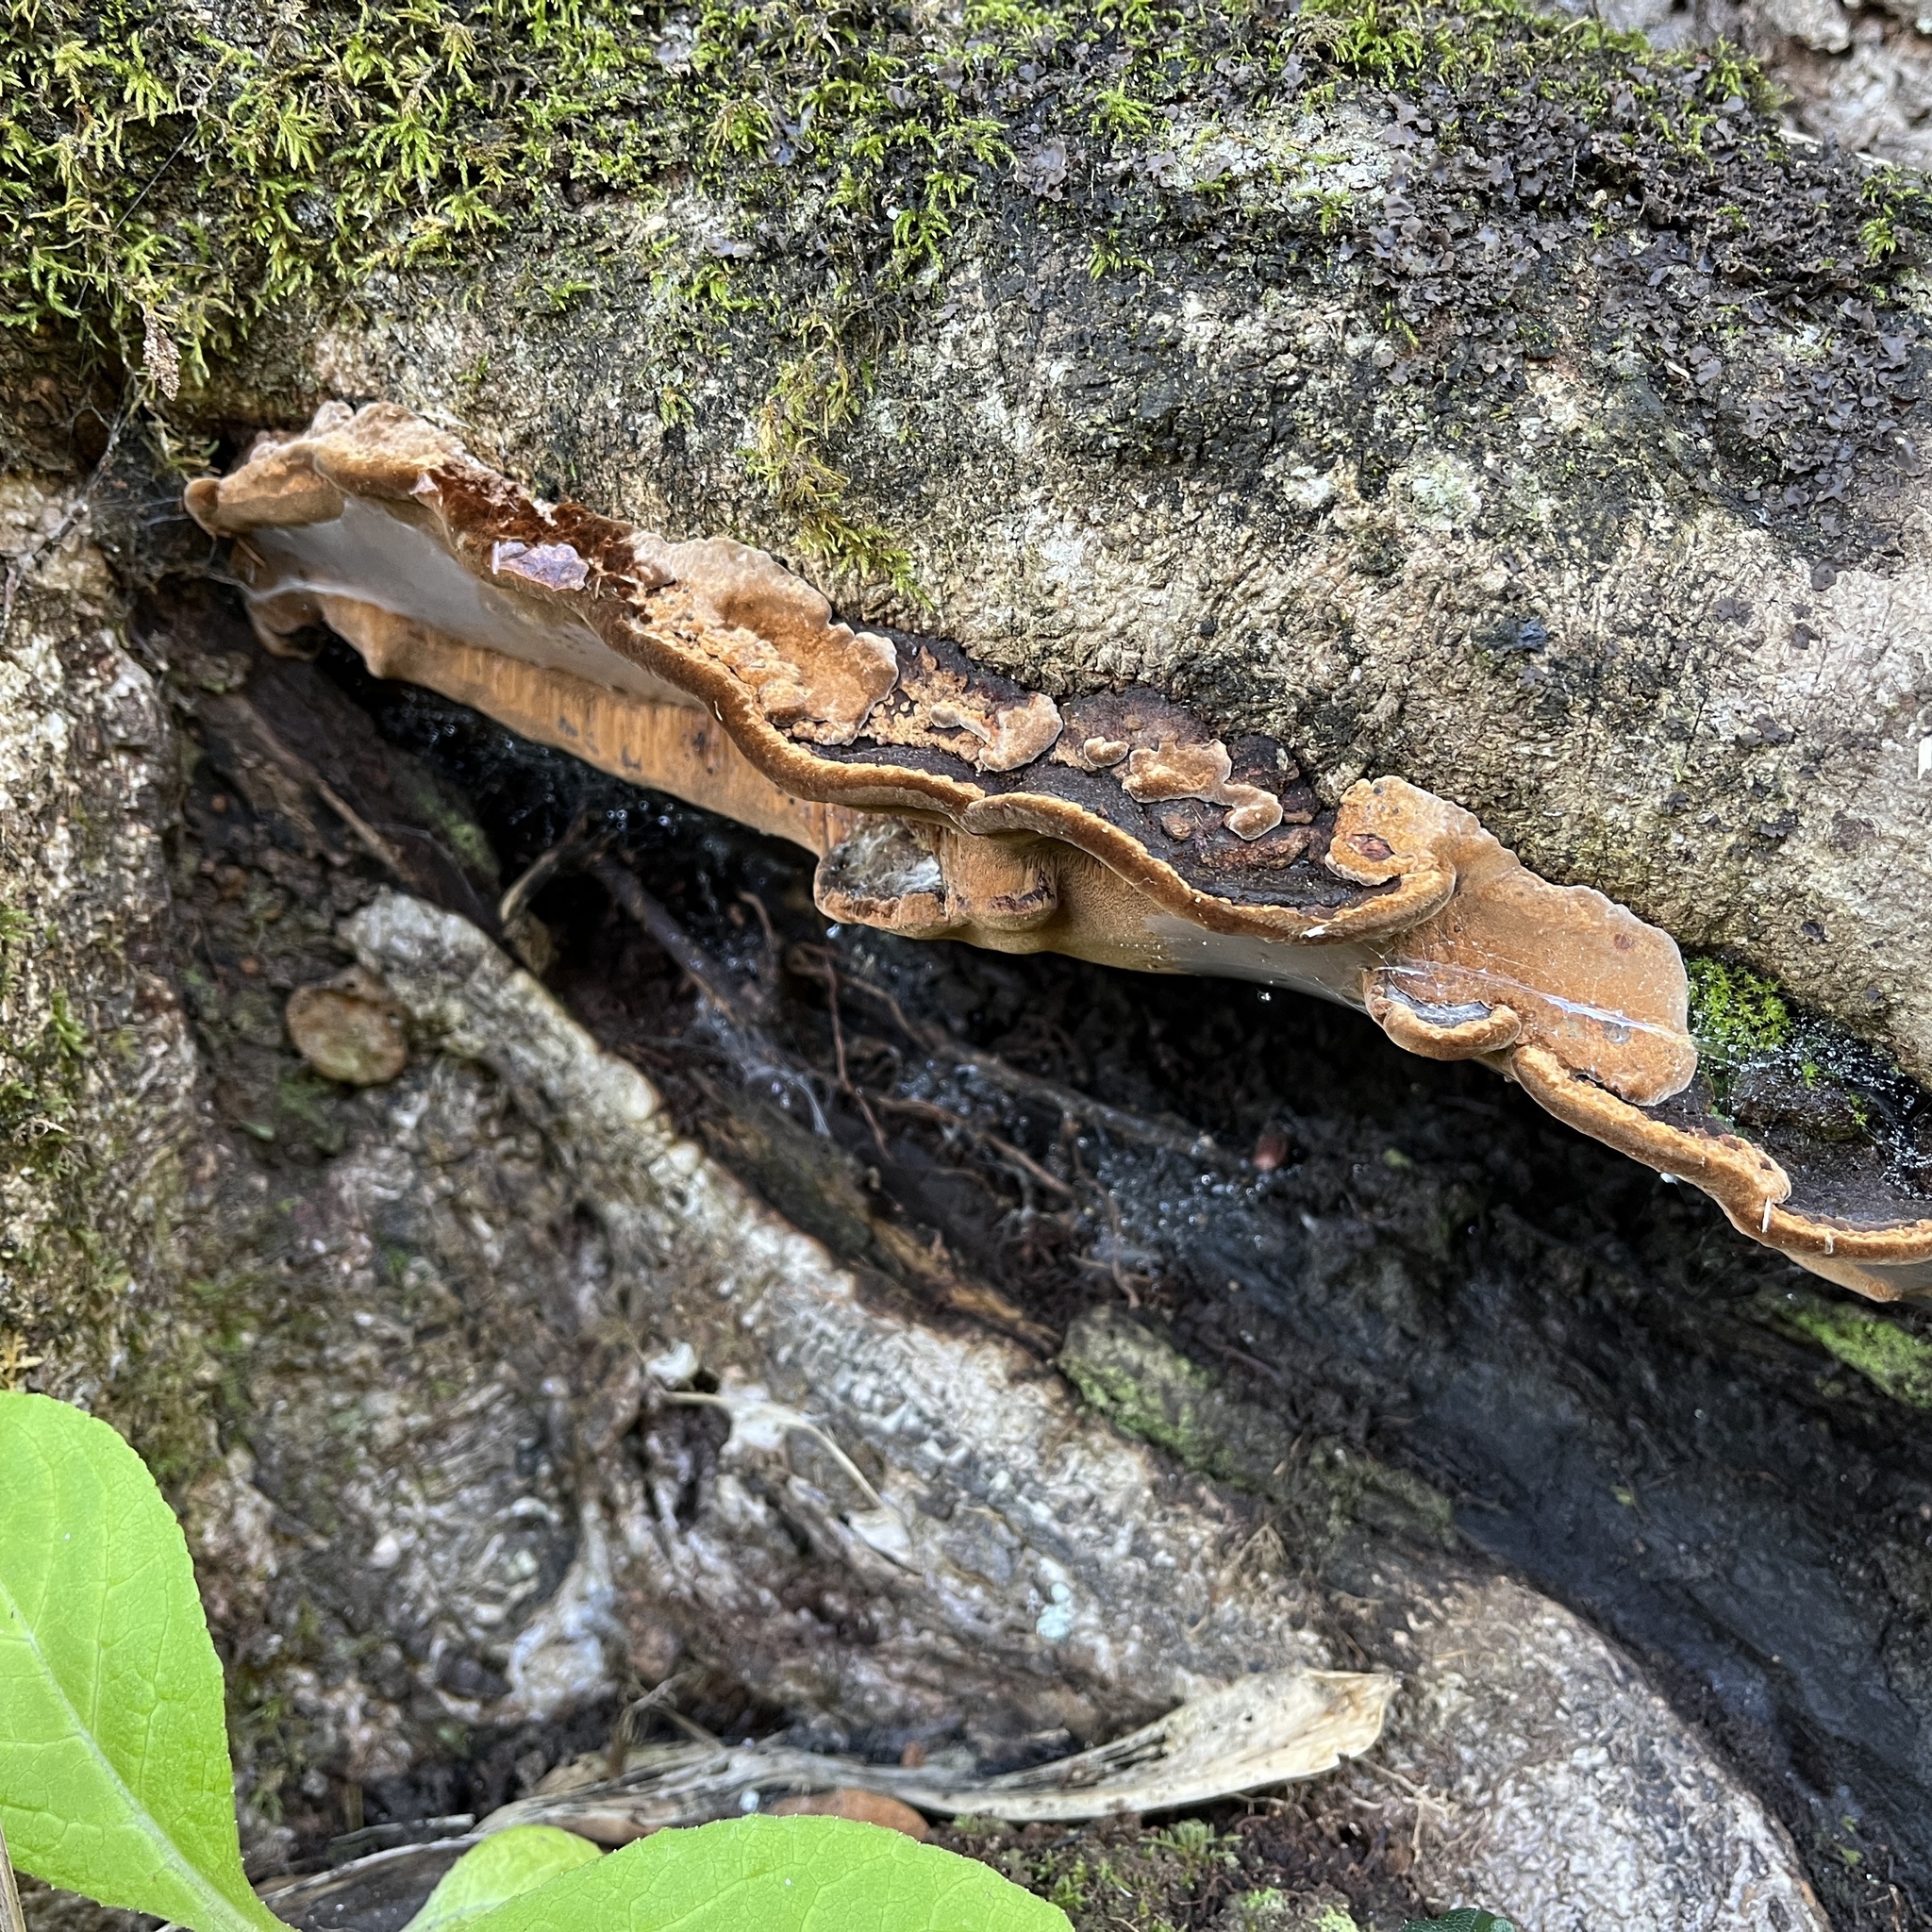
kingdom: Fungi
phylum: Basidiomycota
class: Agaricomycetes
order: Hymenochaetales
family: Hymenochaetaceae
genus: Fuscoporia
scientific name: Fuscoporia senex
